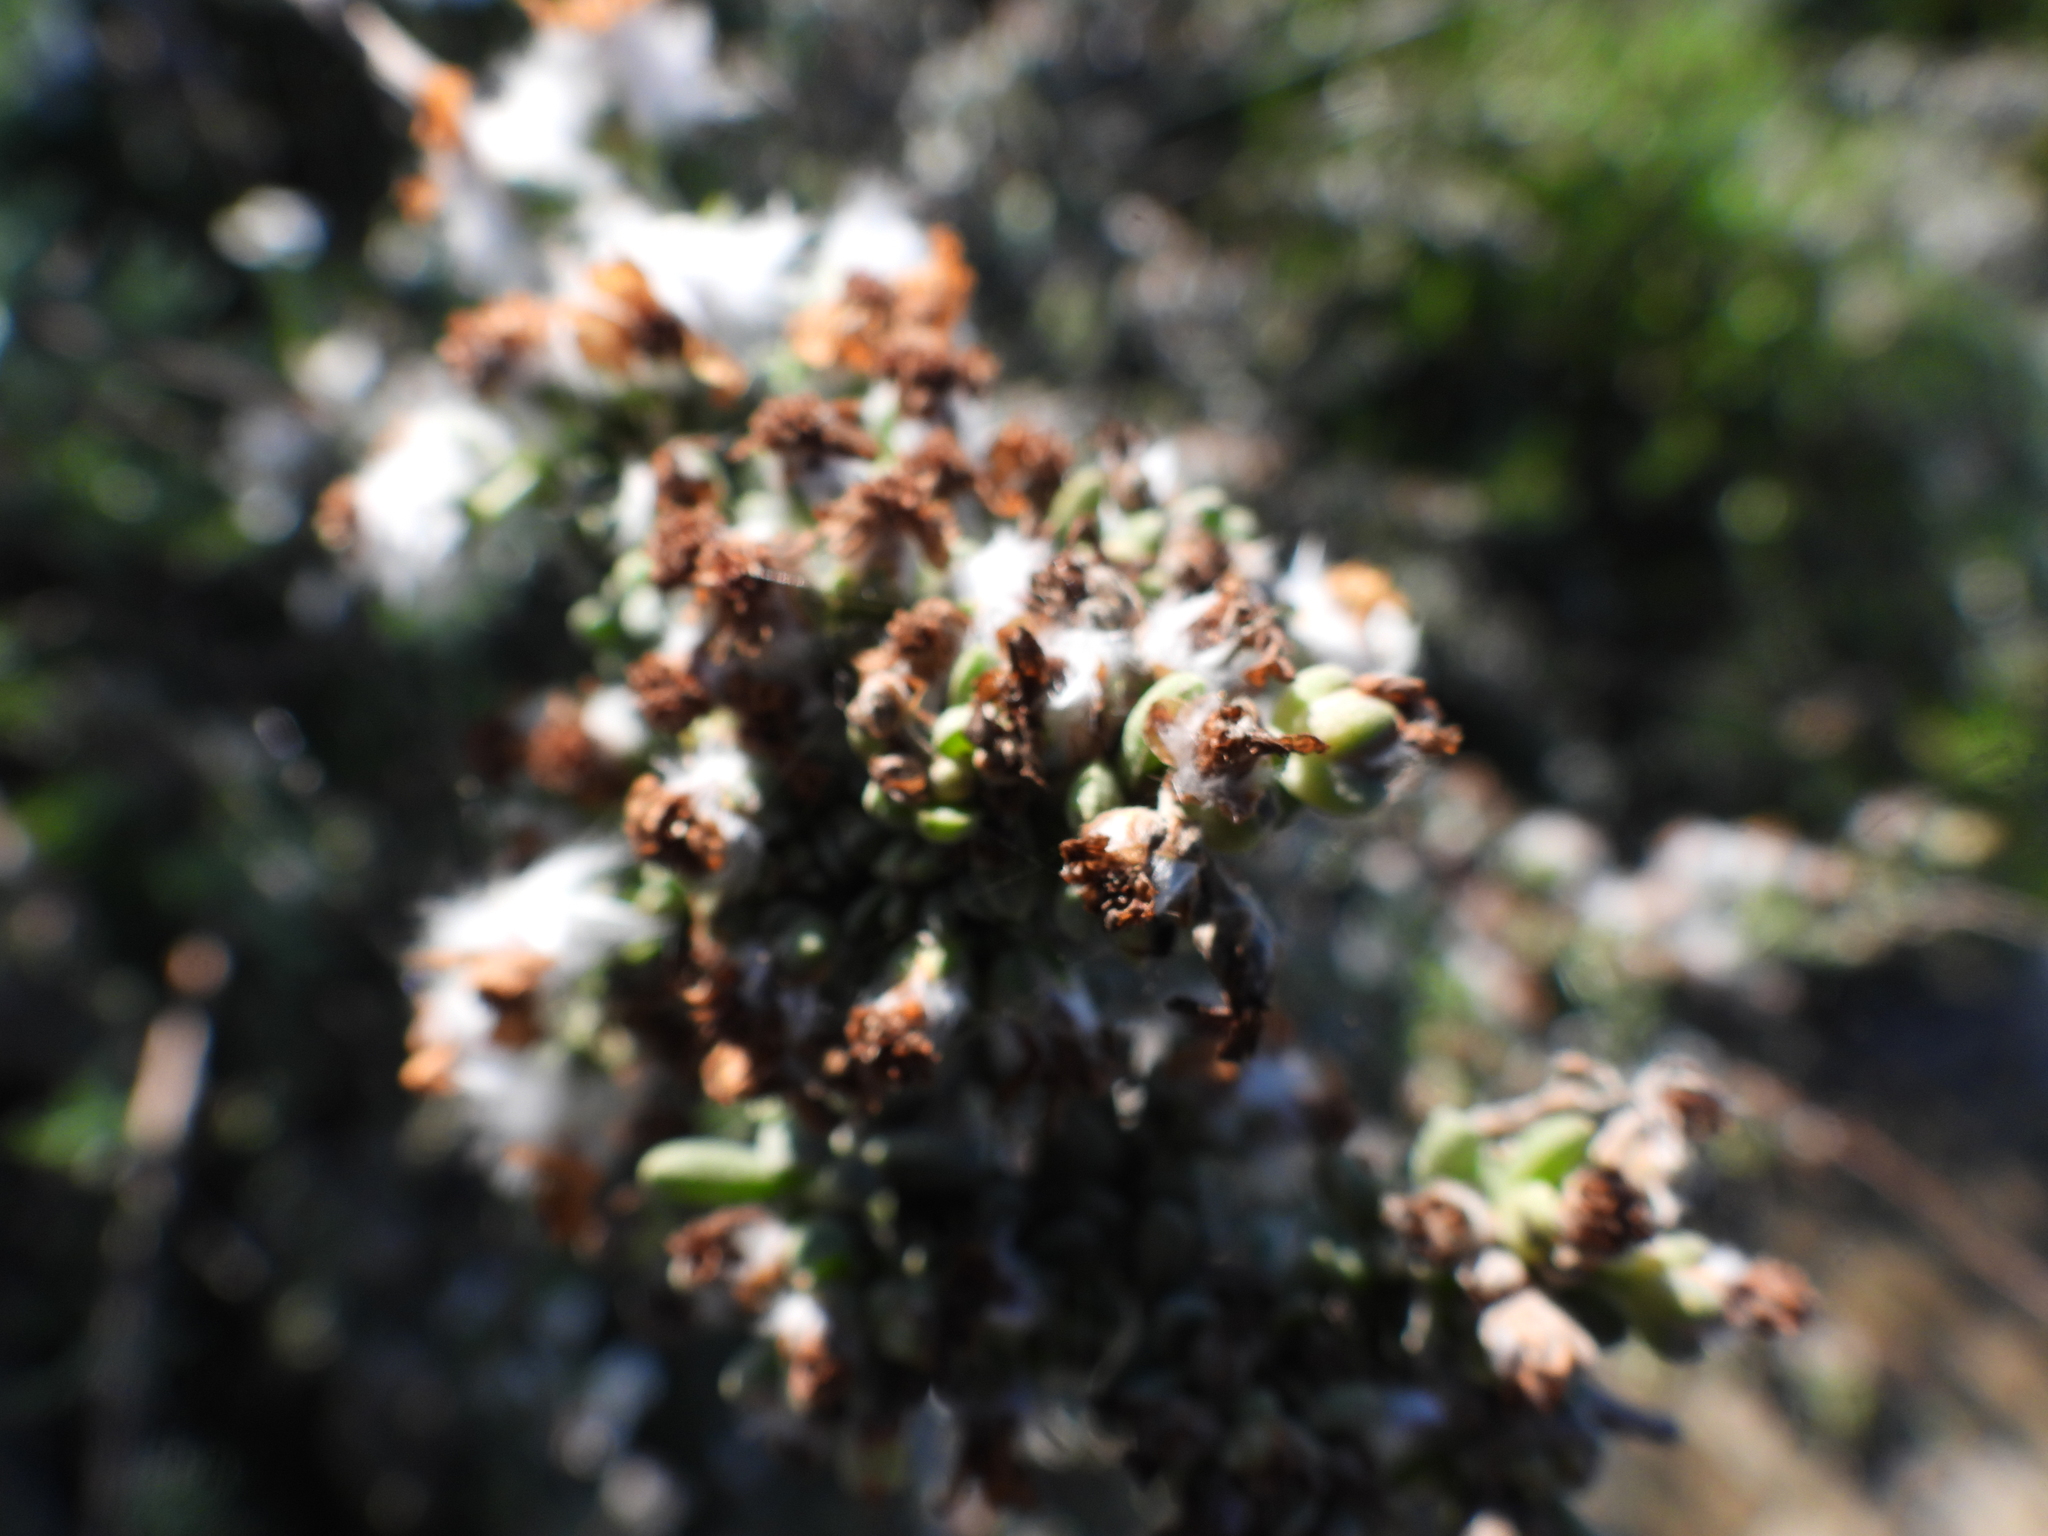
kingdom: Plantae
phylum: Tracheophyta
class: Magnoliopsida
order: Asterales
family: Asteraceae
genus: Eriocephalus
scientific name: Eriocephalus africanus
